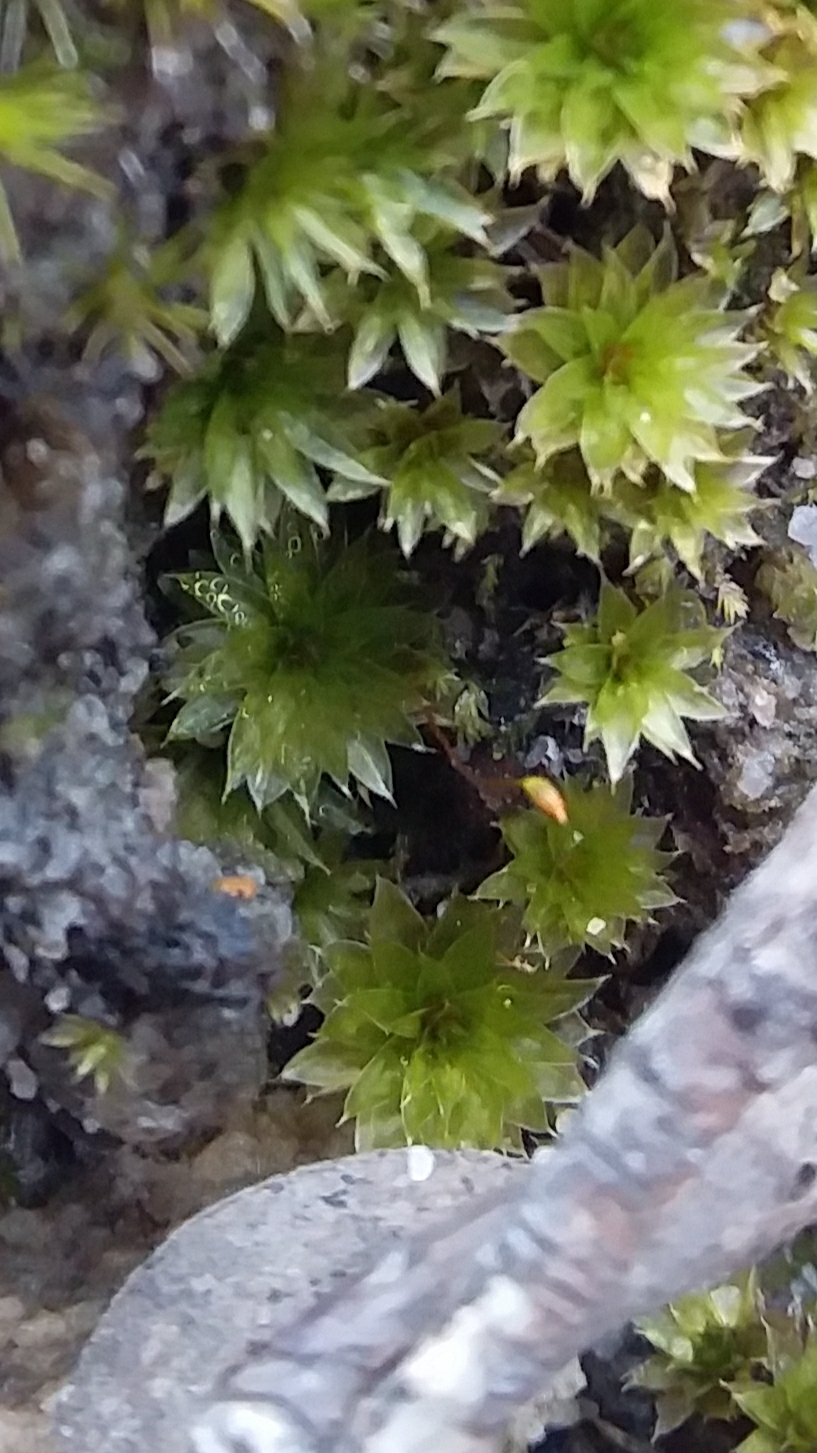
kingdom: Plantae
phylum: Bryophyta
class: Bryopsida
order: Bryales
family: Bryaceae
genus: Rosulabryum
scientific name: Rosulabryum billardierei
